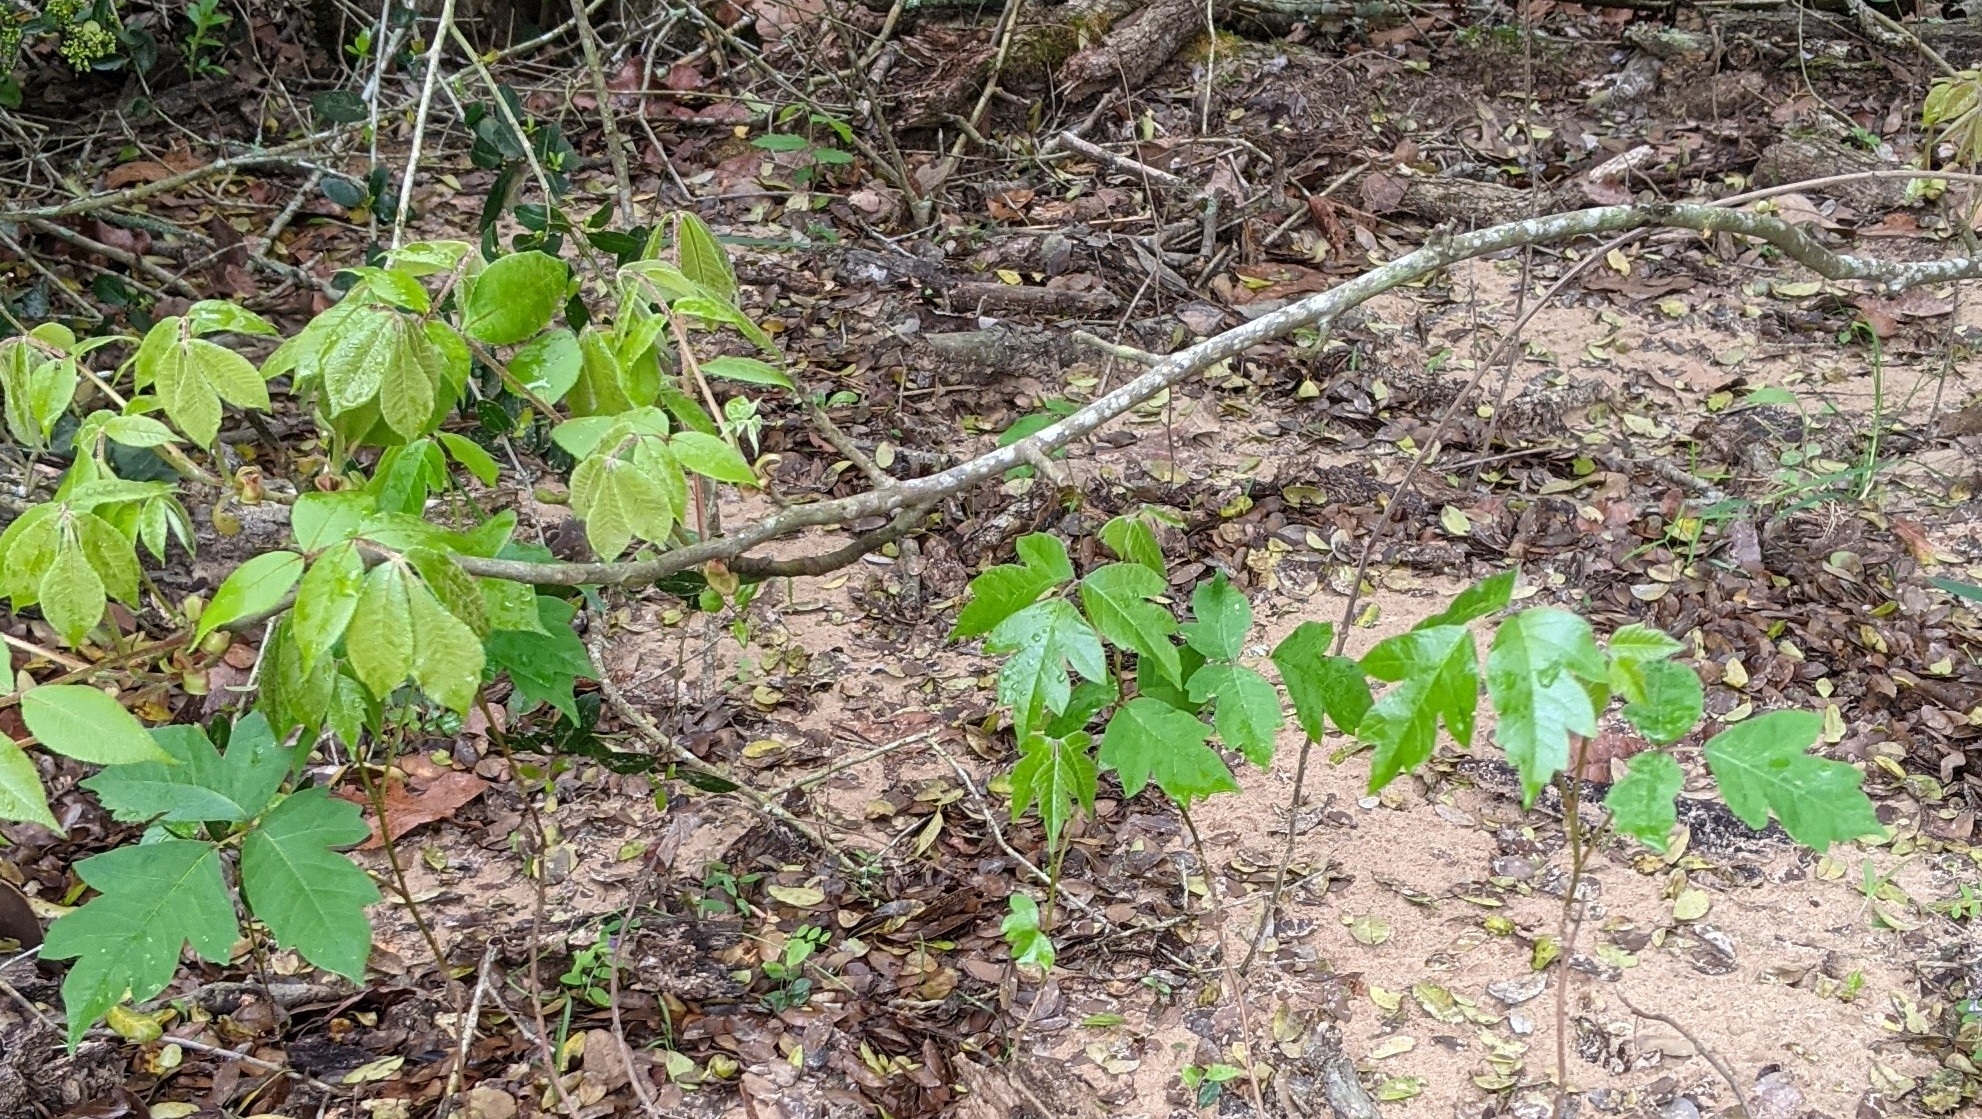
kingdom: Plantae
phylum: Tracheophyta
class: Magnoliopsida
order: Sapindales
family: Anacardiaceae
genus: Toxicodendron
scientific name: Toxicodendron radicans
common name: Poison ivy
